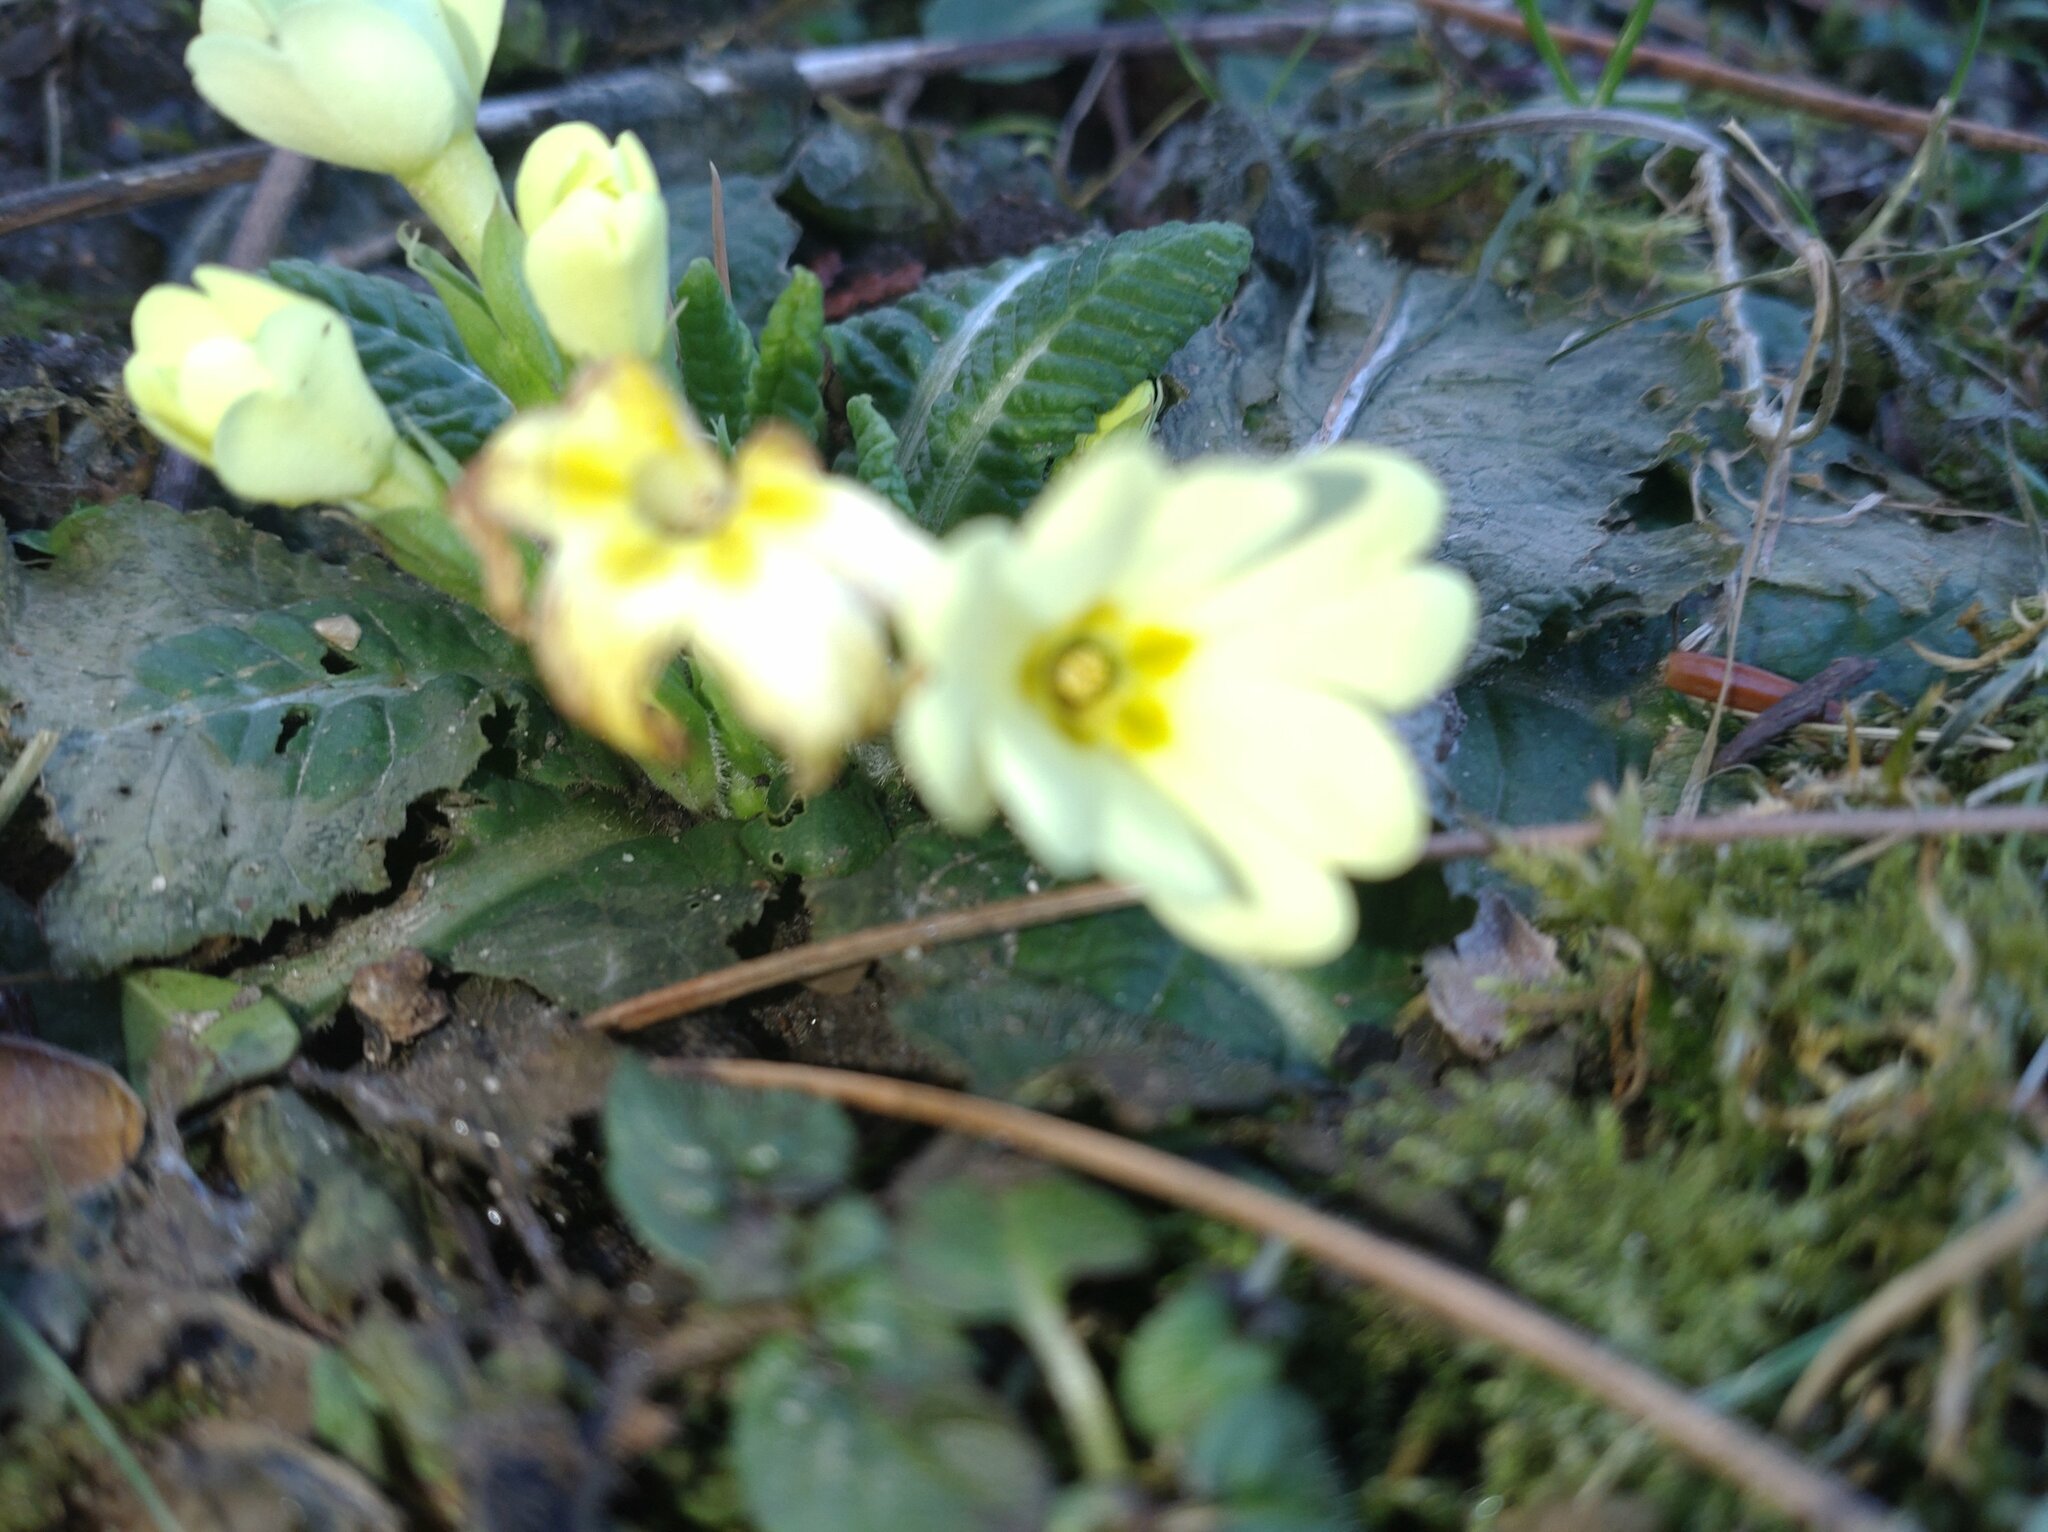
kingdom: Plantae
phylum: Tracheophyta
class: Magnoliopsida
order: Ericales
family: Primulaceae
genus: Primula
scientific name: Primula vulgaris
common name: Primrose
